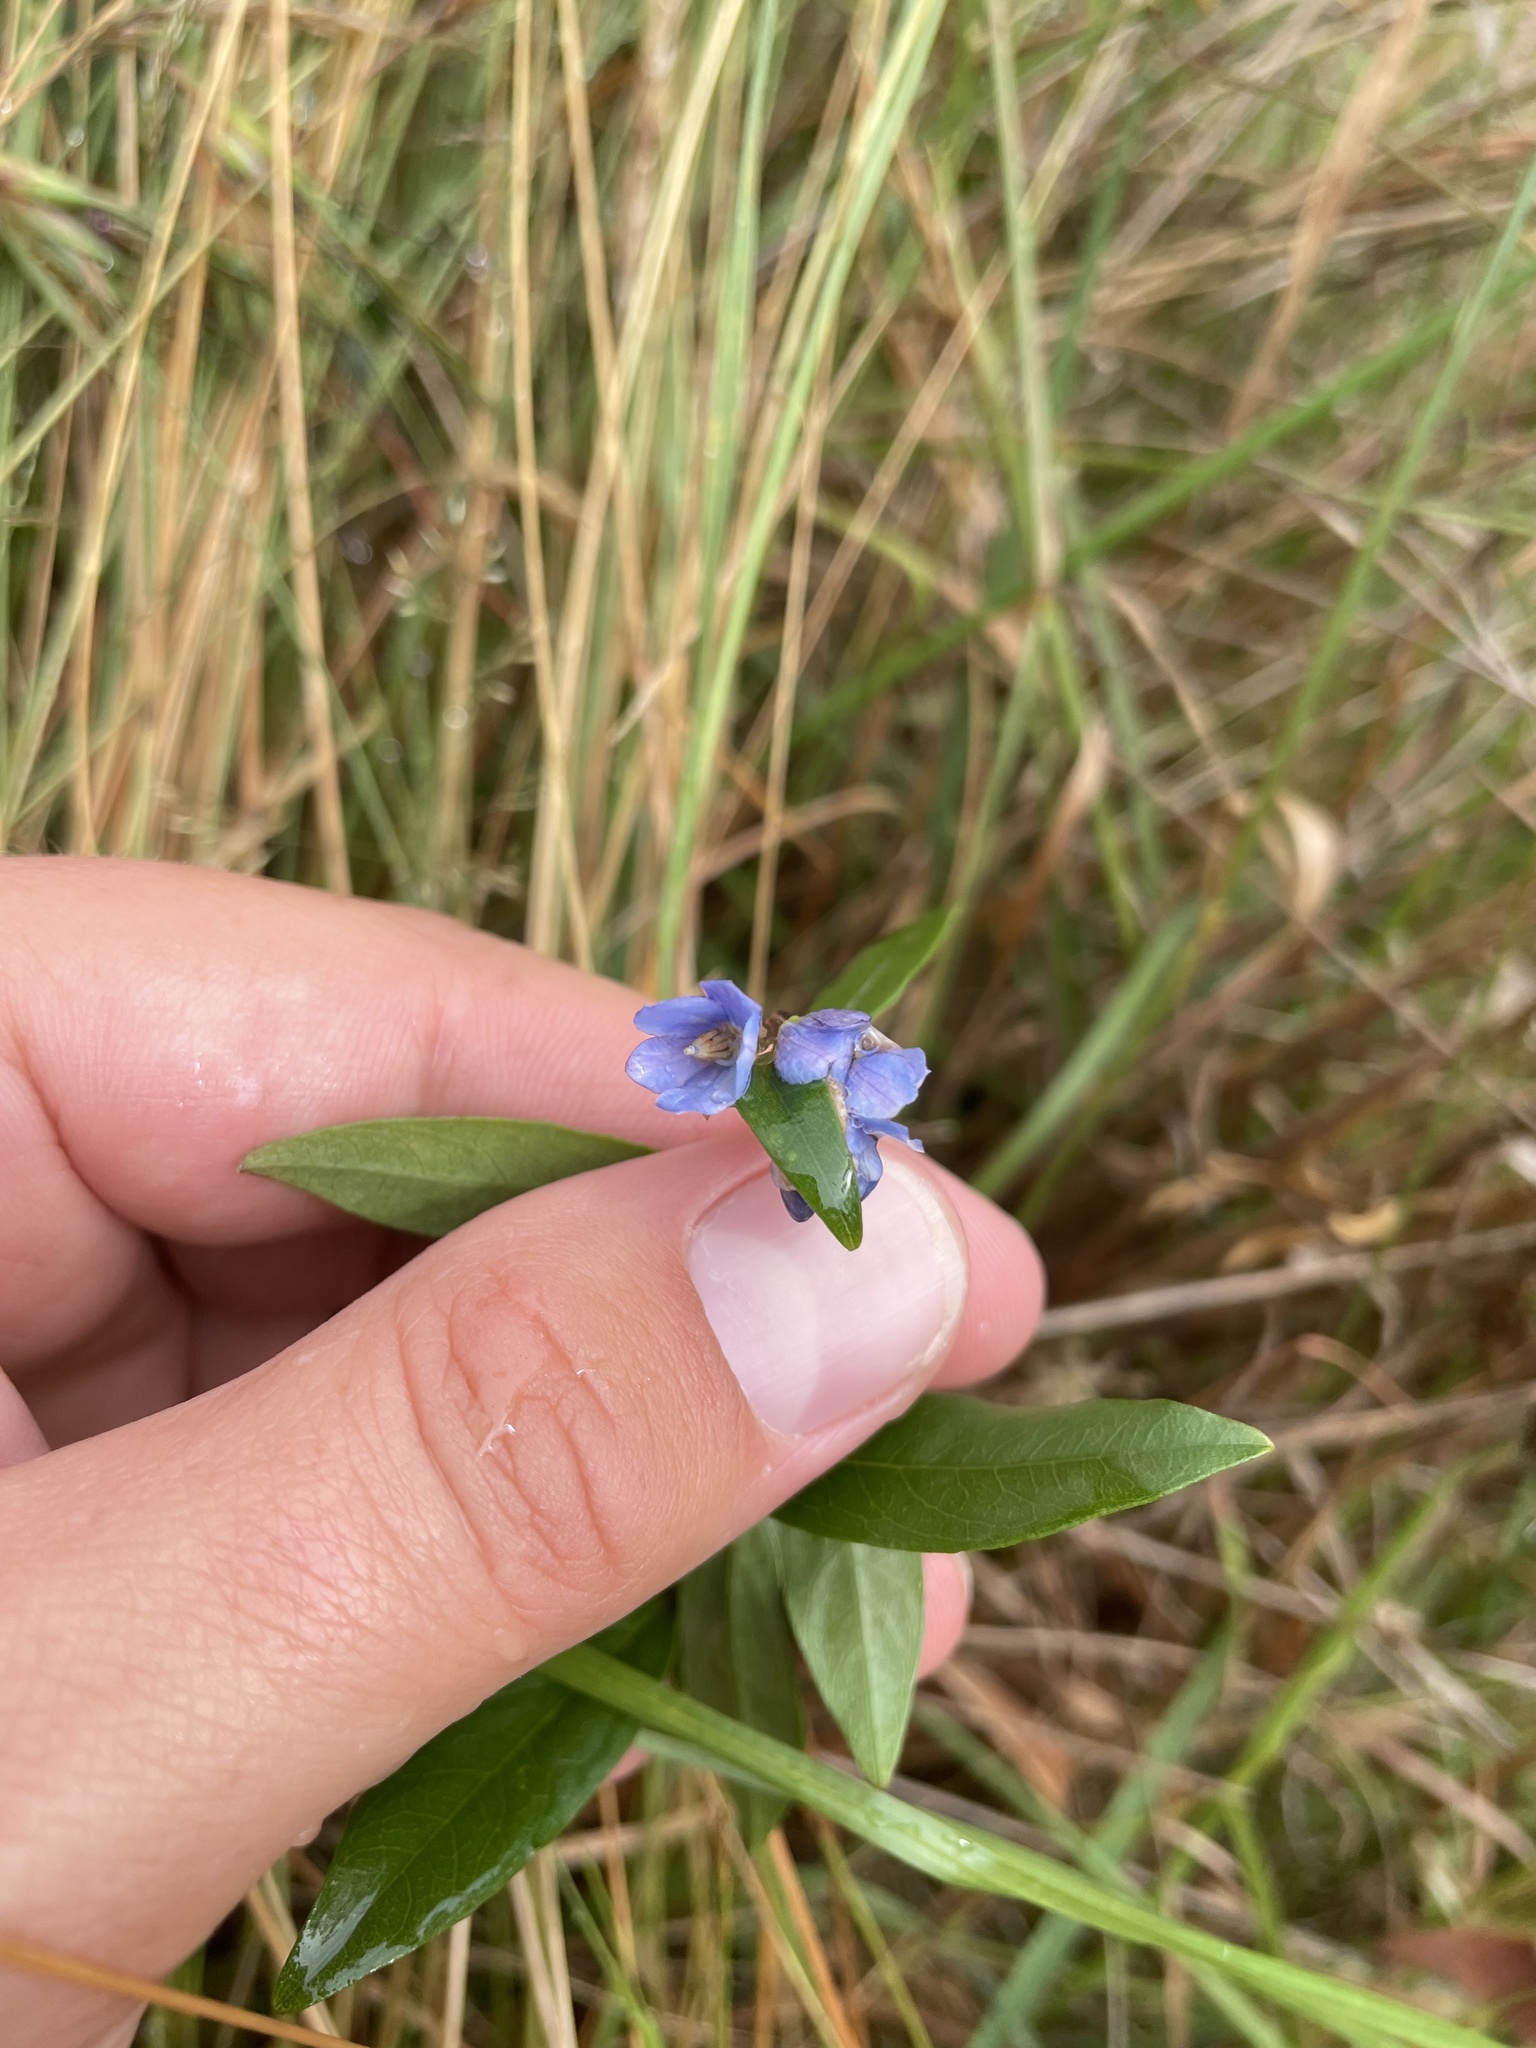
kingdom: Plantae
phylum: Tracheophyta
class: Magnoliopsida
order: Apiales
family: Pittosporaceae
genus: Billardiera
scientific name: Billardiera fusiformis
